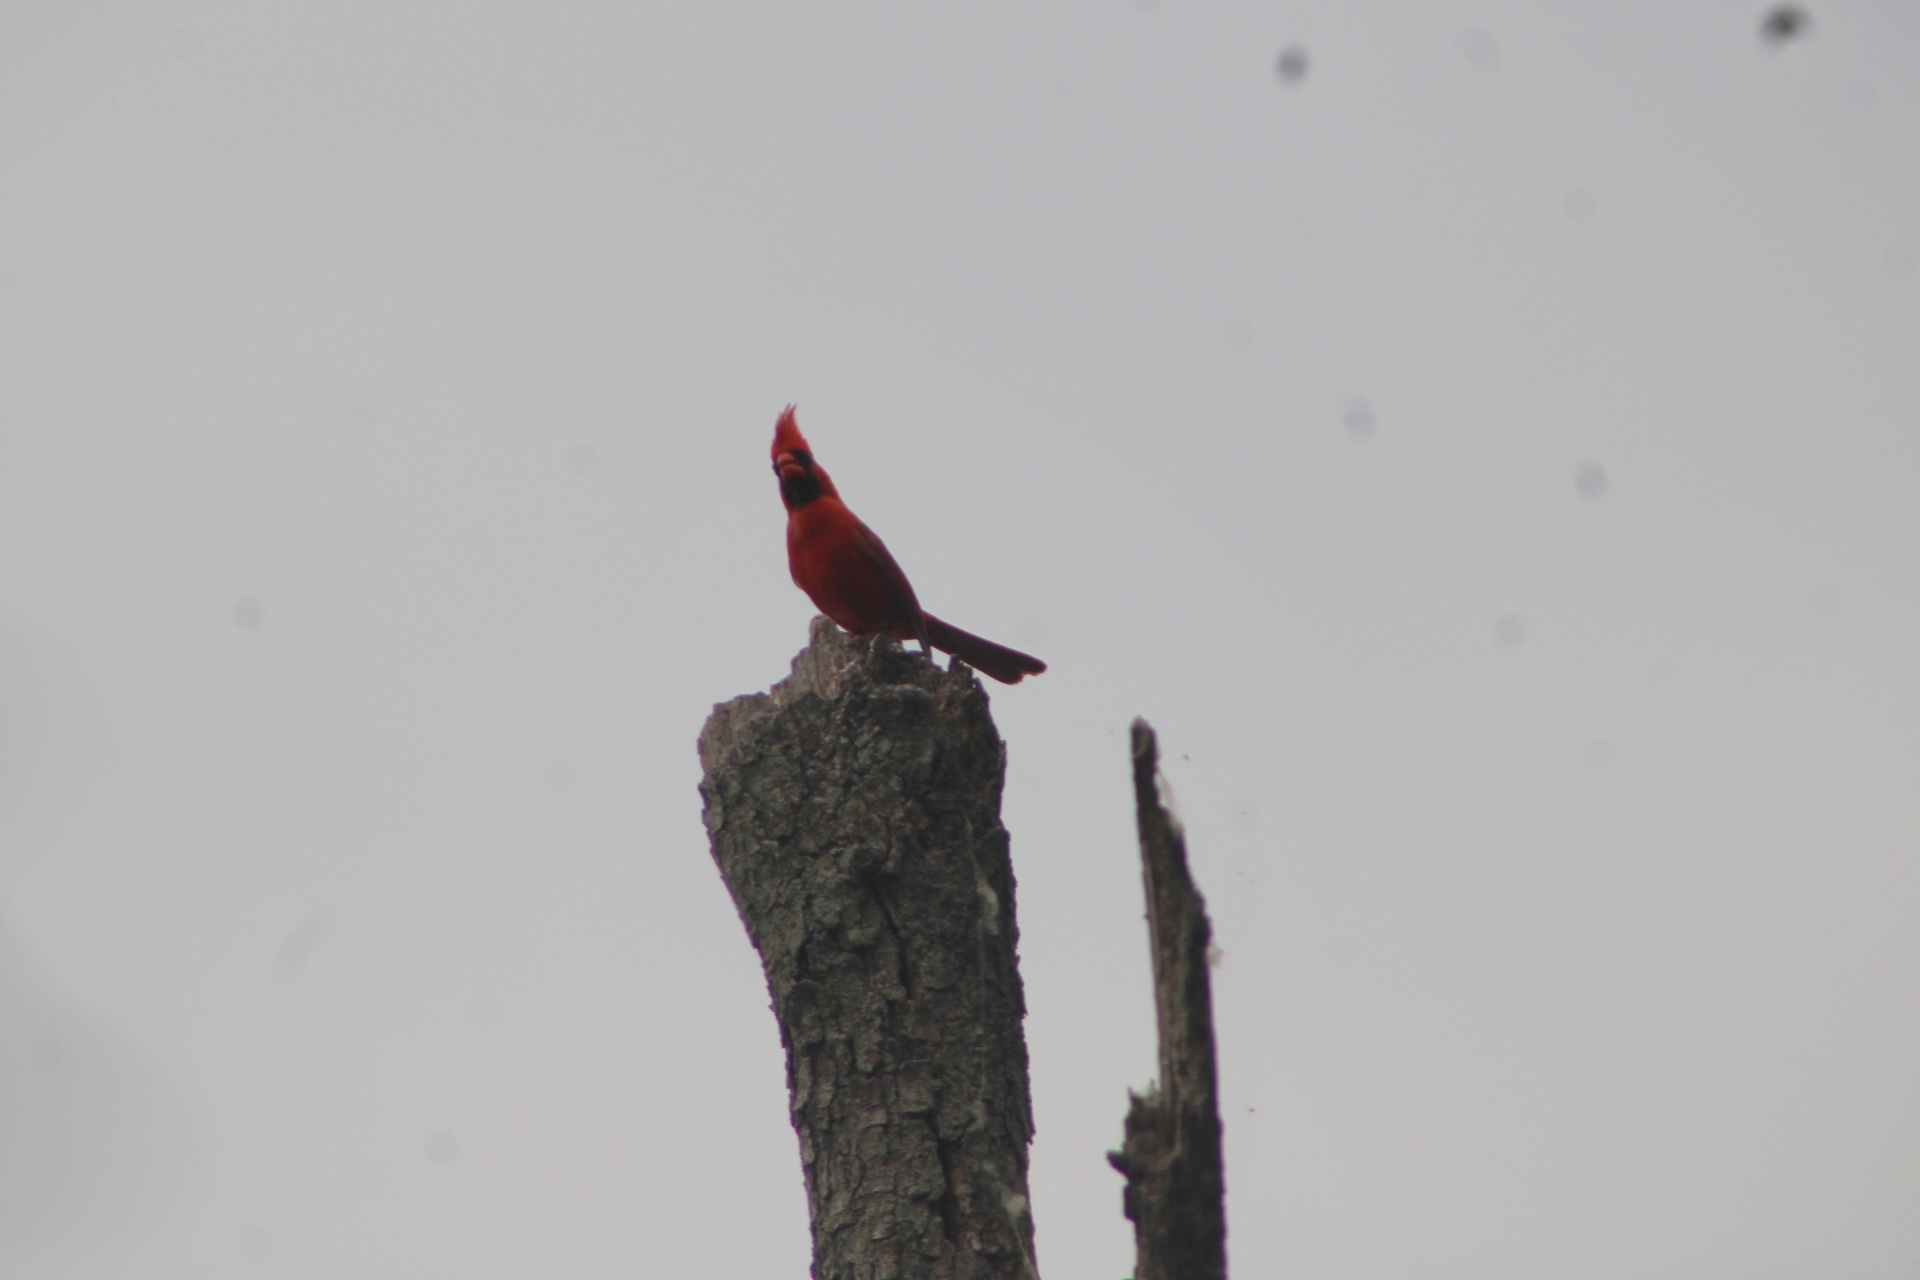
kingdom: Animalia
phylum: Chordata
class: Aves
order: Passeriformes
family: Cardinalidae
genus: Cardinalis
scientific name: Cardinalis cardinalis
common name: Northern cardinal
